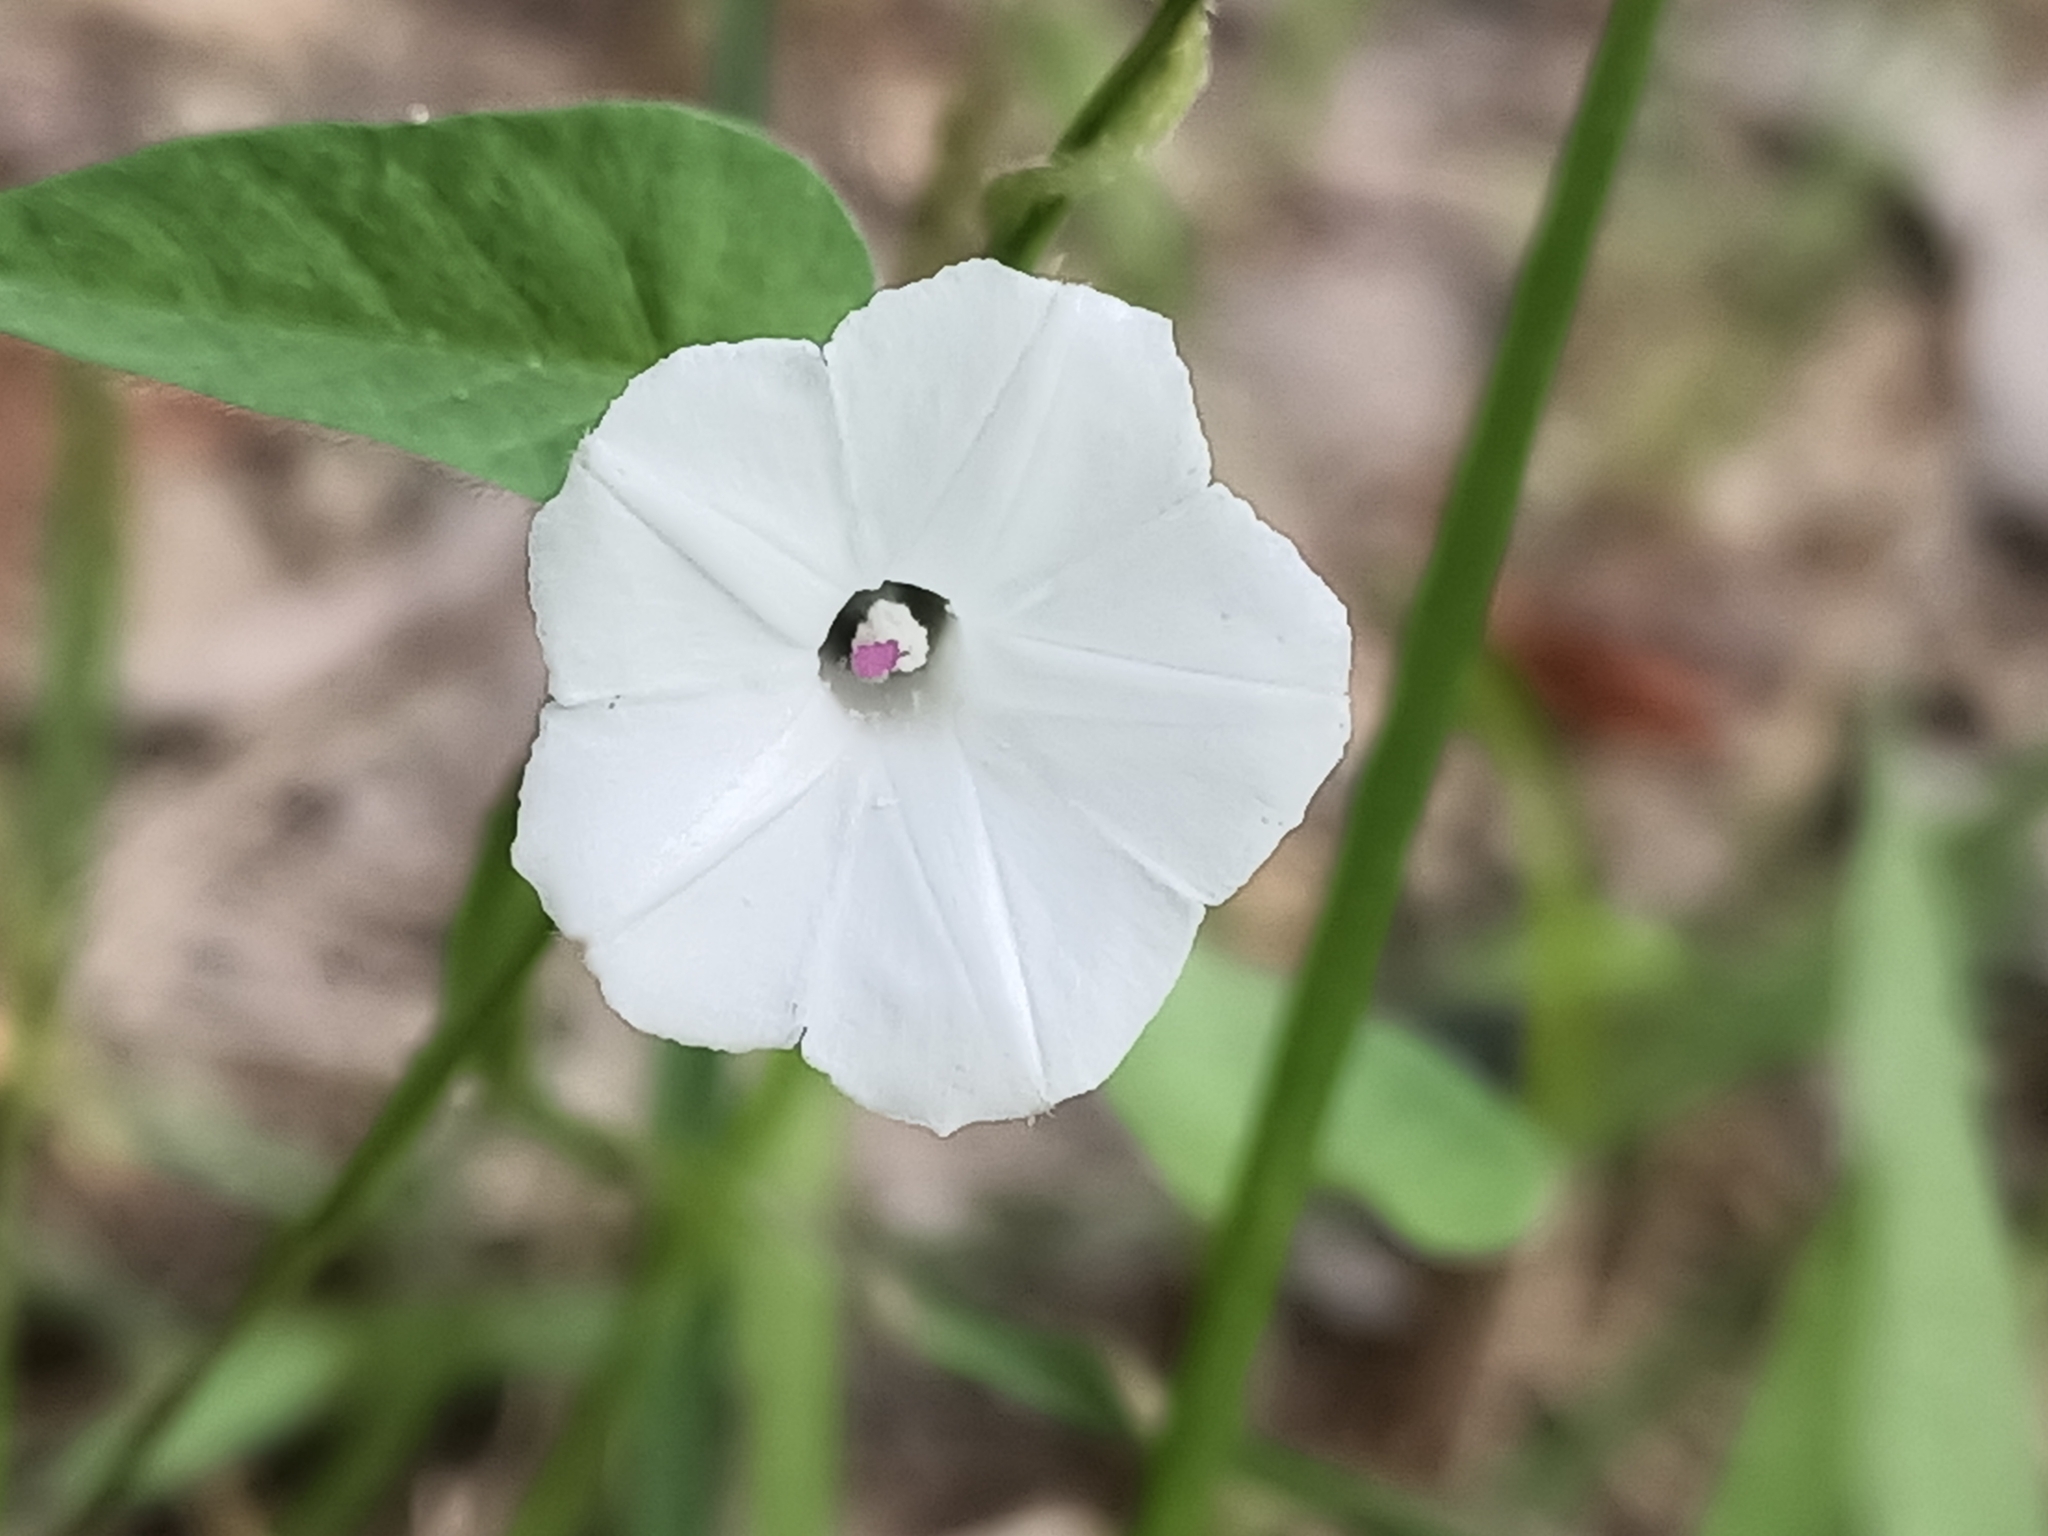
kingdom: Plantae
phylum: Tracheophyta
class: Magnoliopsida
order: Solanales
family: Convolvulaceae
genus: Ipomoea
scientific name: Ipomoea biflora
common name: Bellvine
